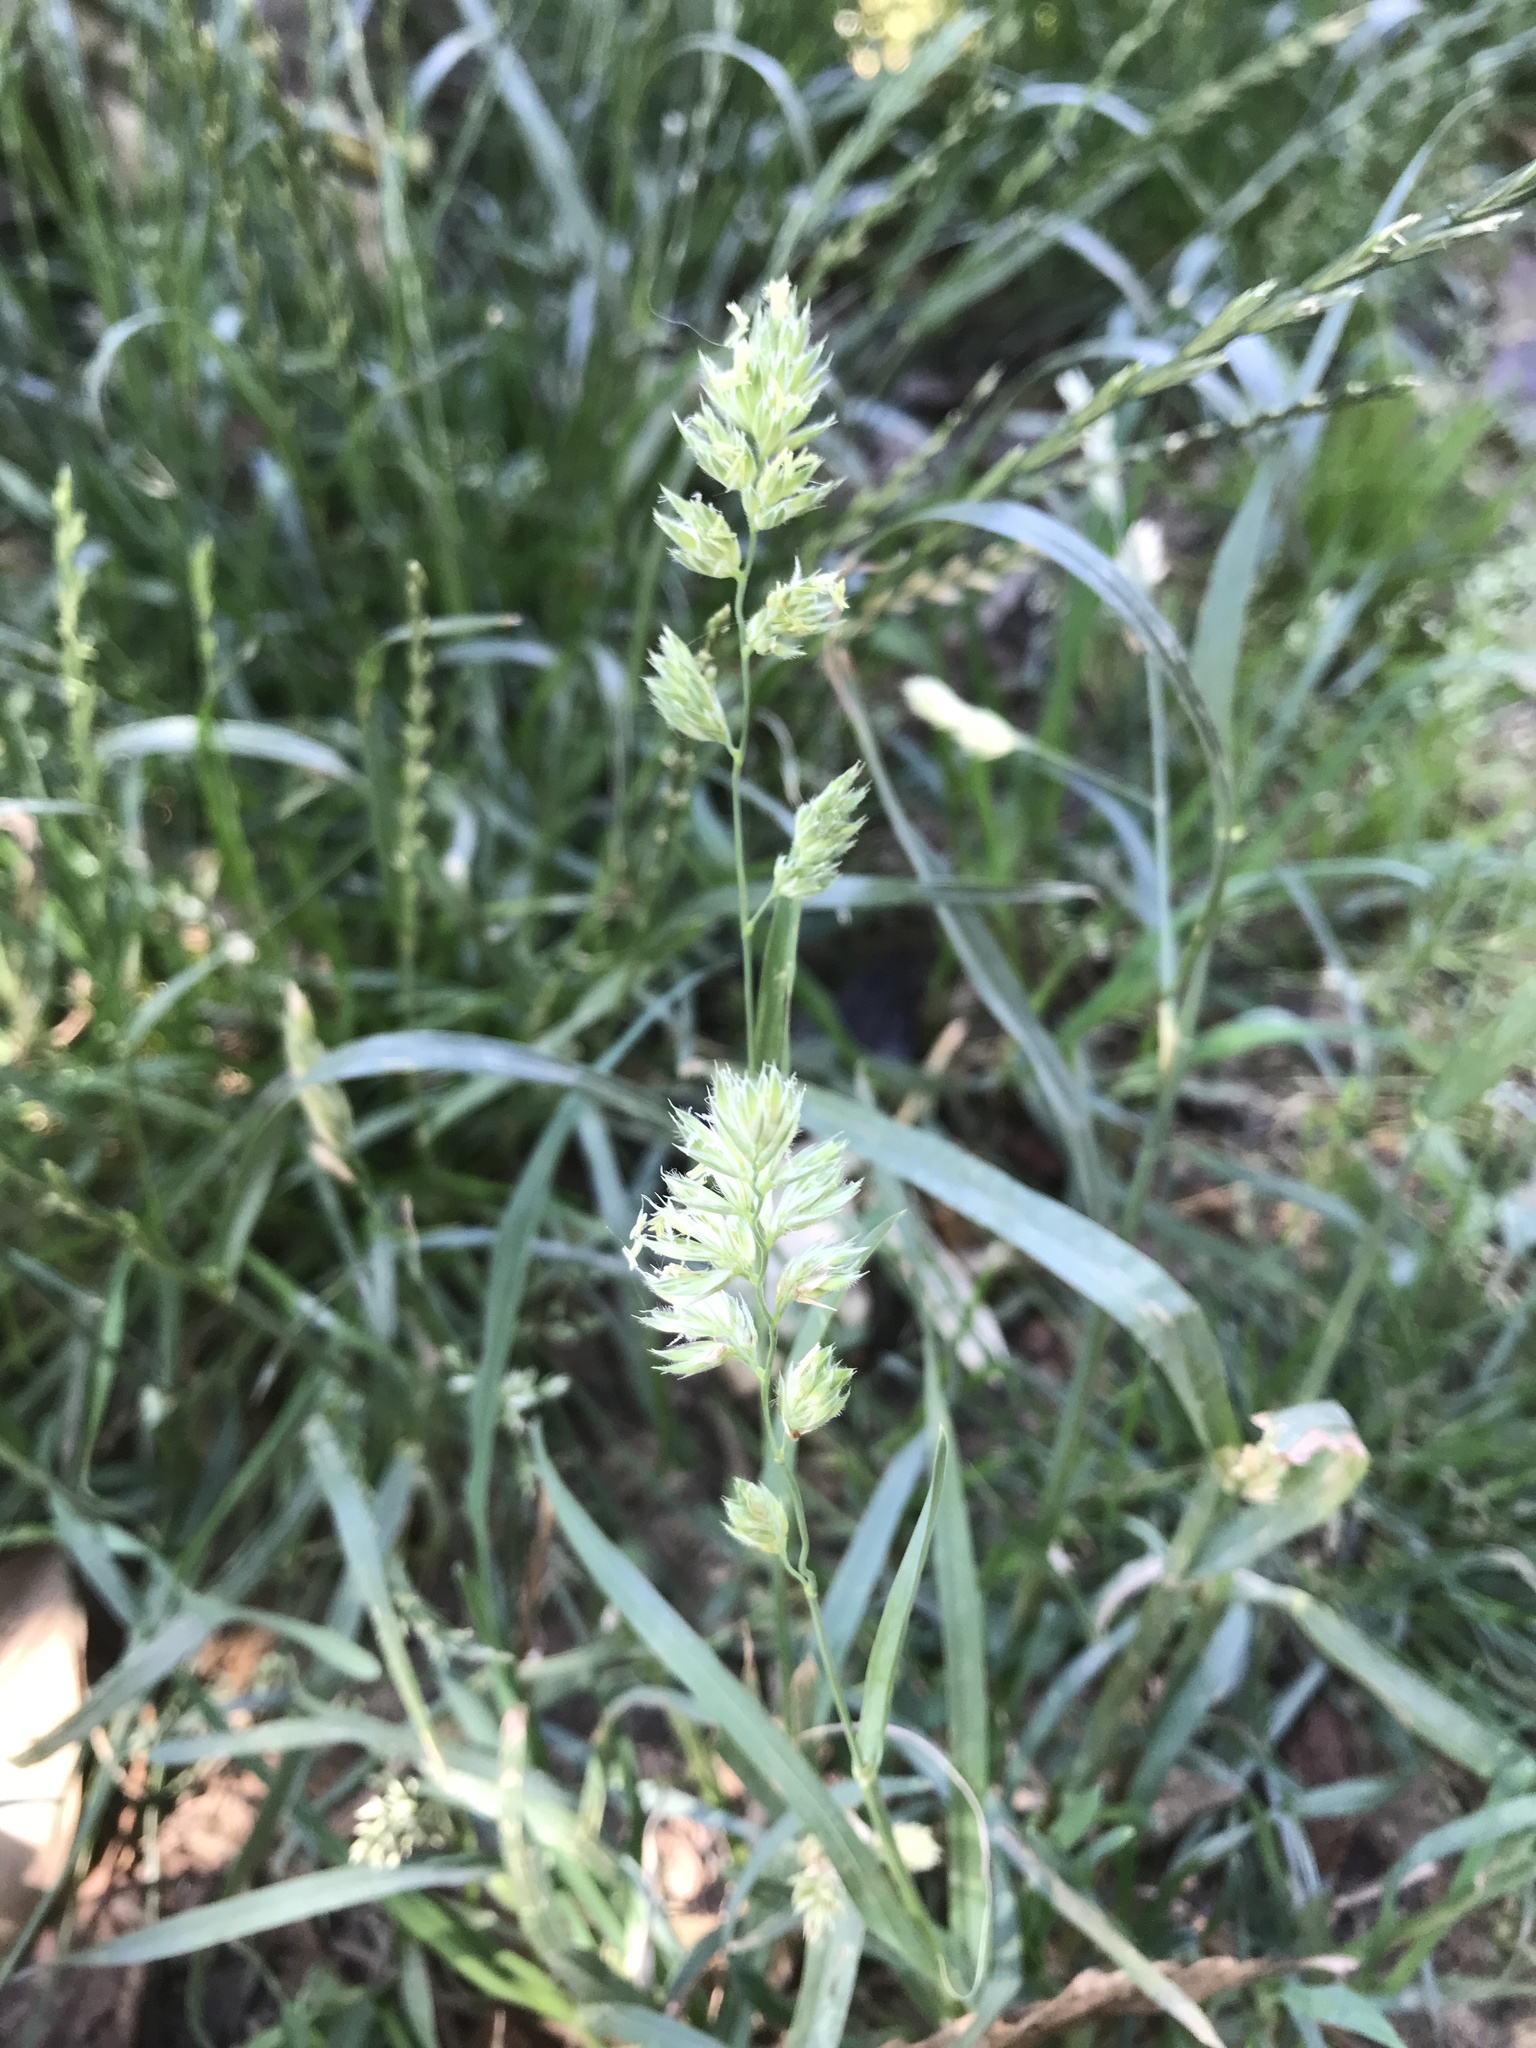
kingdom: Plantae
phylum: Tracheophyta
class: Liliopsida
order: Poales
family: Poaceae
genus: Dactylis
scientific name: Dactylis glomerata
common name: Orchardgrass
